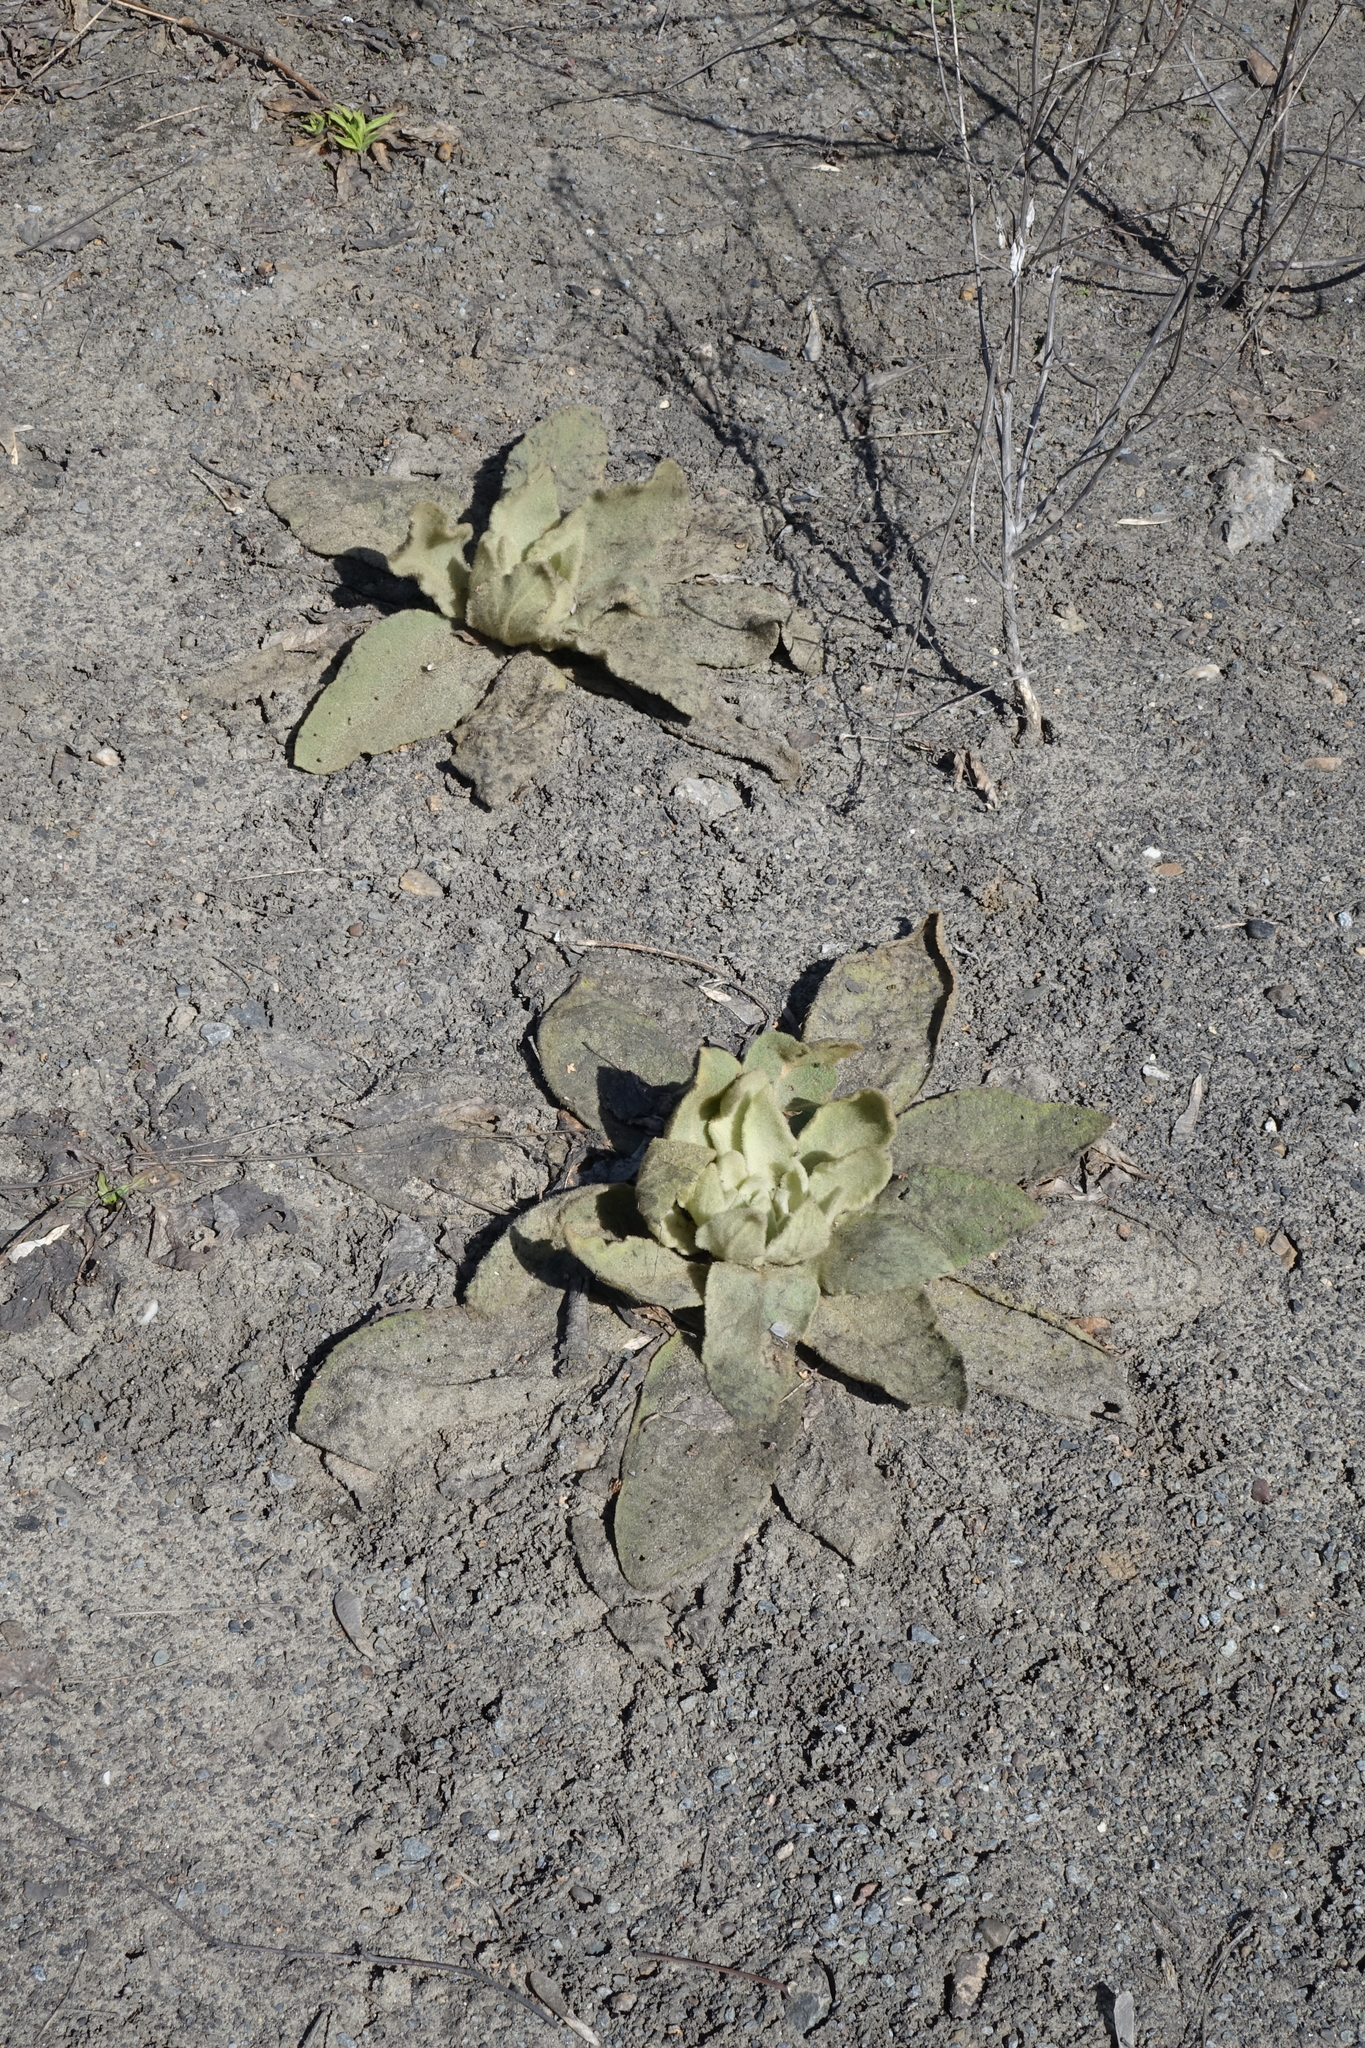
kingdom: Plantae
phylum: Tracheophyta
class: Magnoliopsida
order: Lamiales
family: Scrophulariaceae
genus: Verbascum
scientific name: Verbascum thapsus
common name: Common mullein
